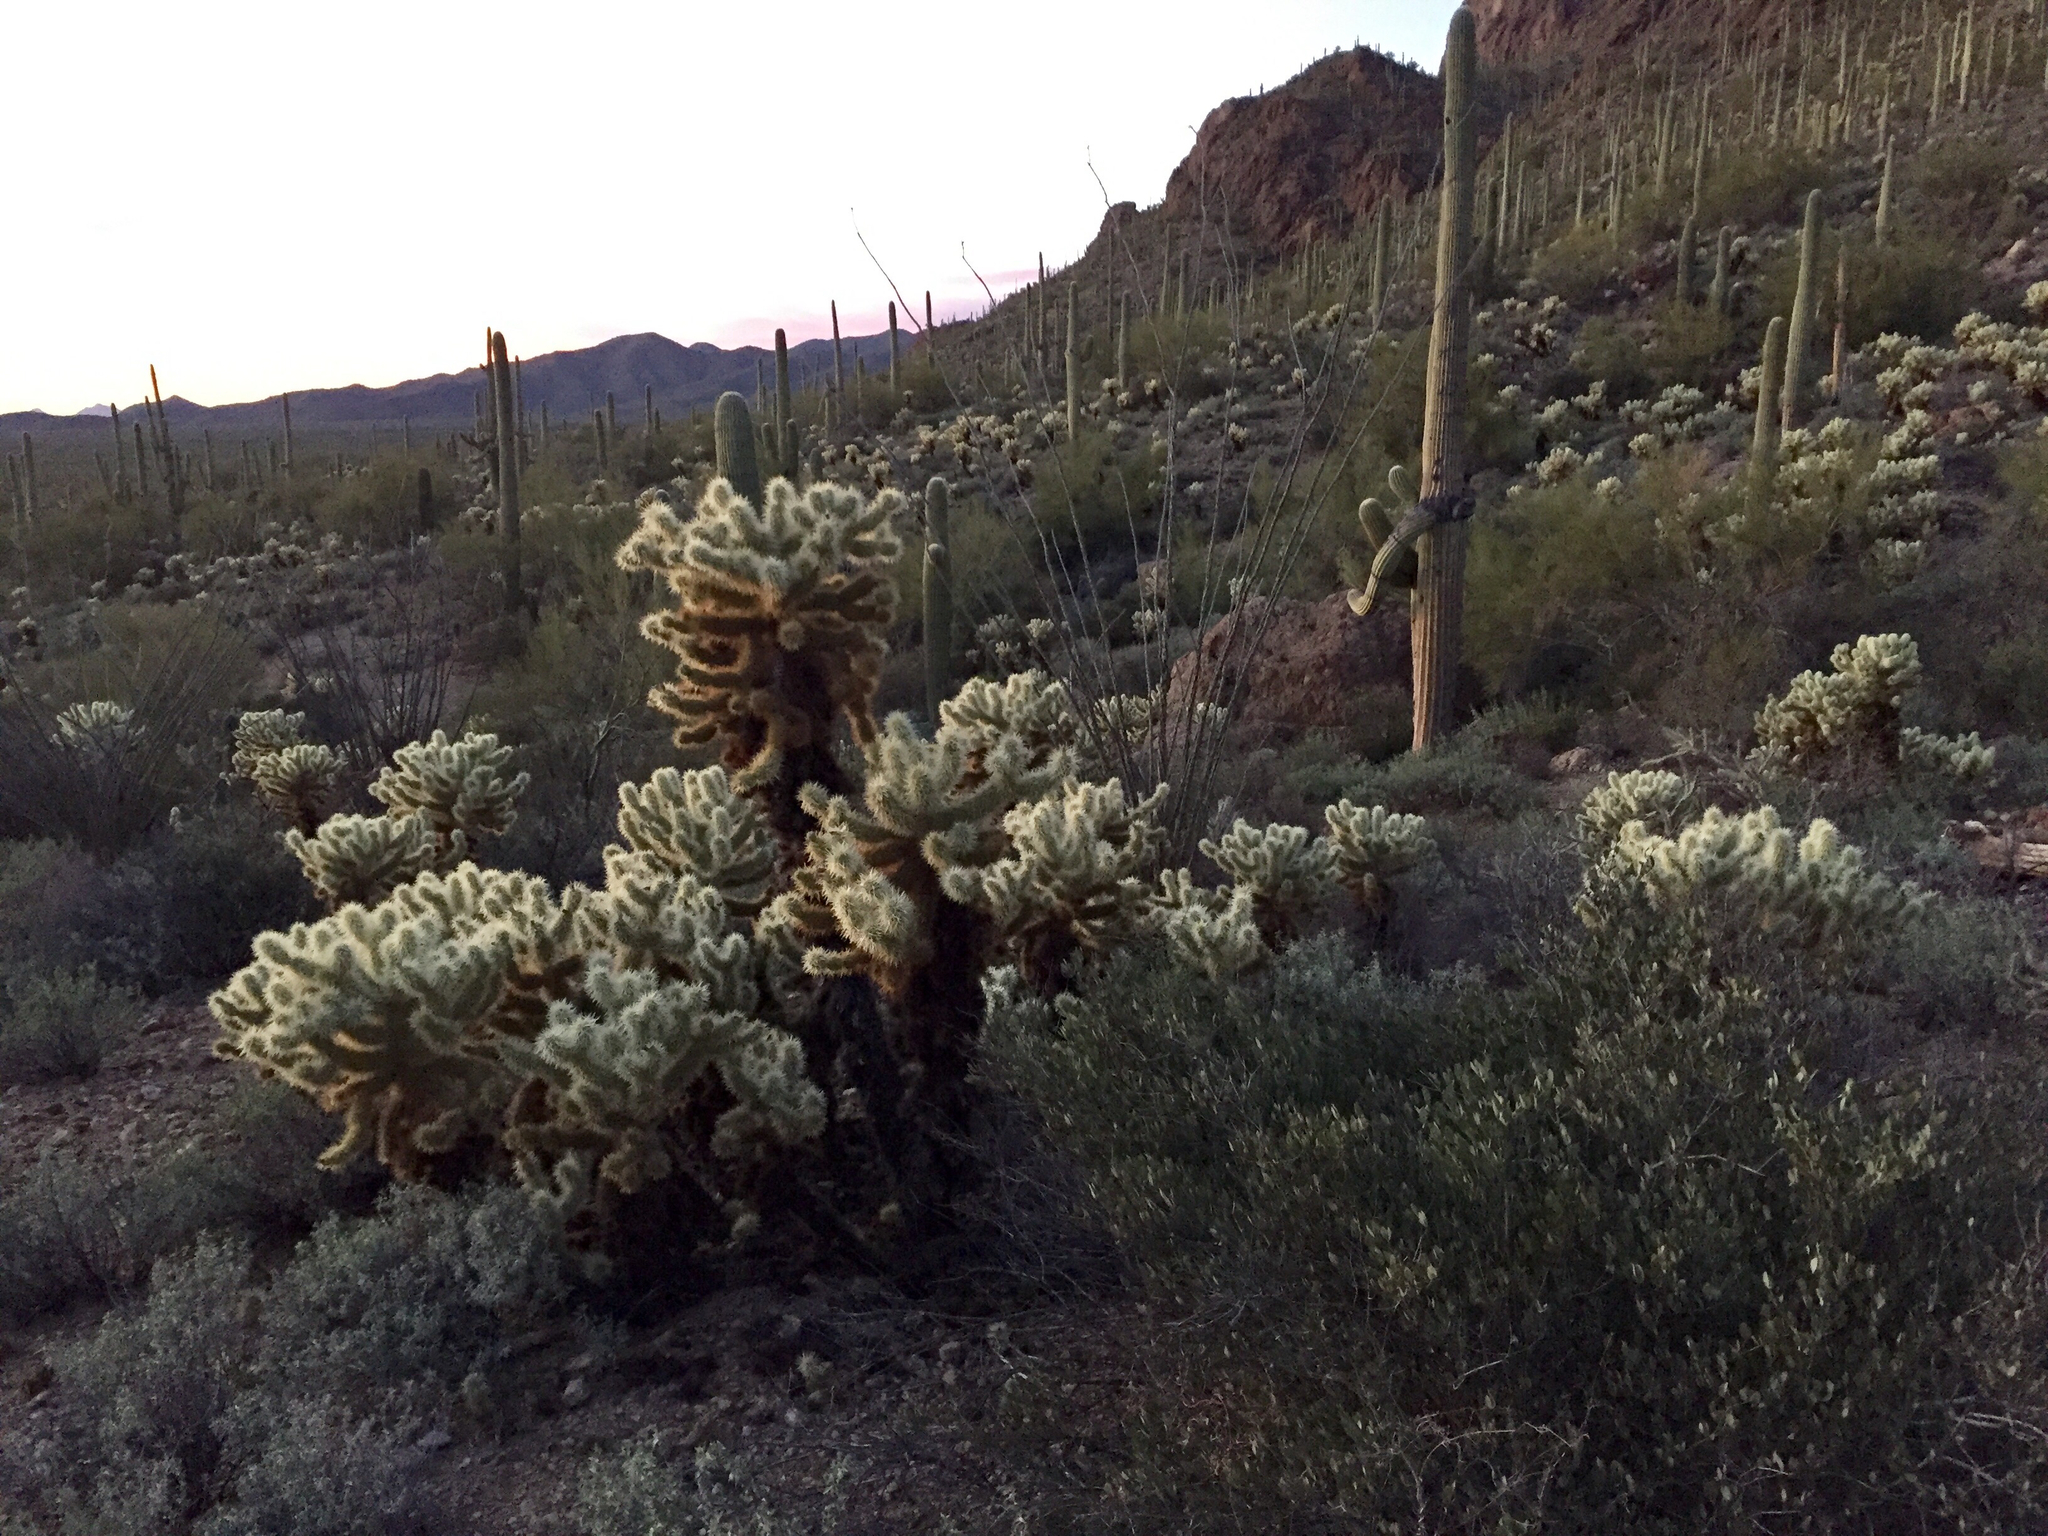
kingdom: Plantae
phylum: Tracheophyta
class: Magnoliopsida
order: Caryophyllales
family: Cactaceae
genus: Cylindropuntia
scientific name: Cylindropuntia fosbergii
